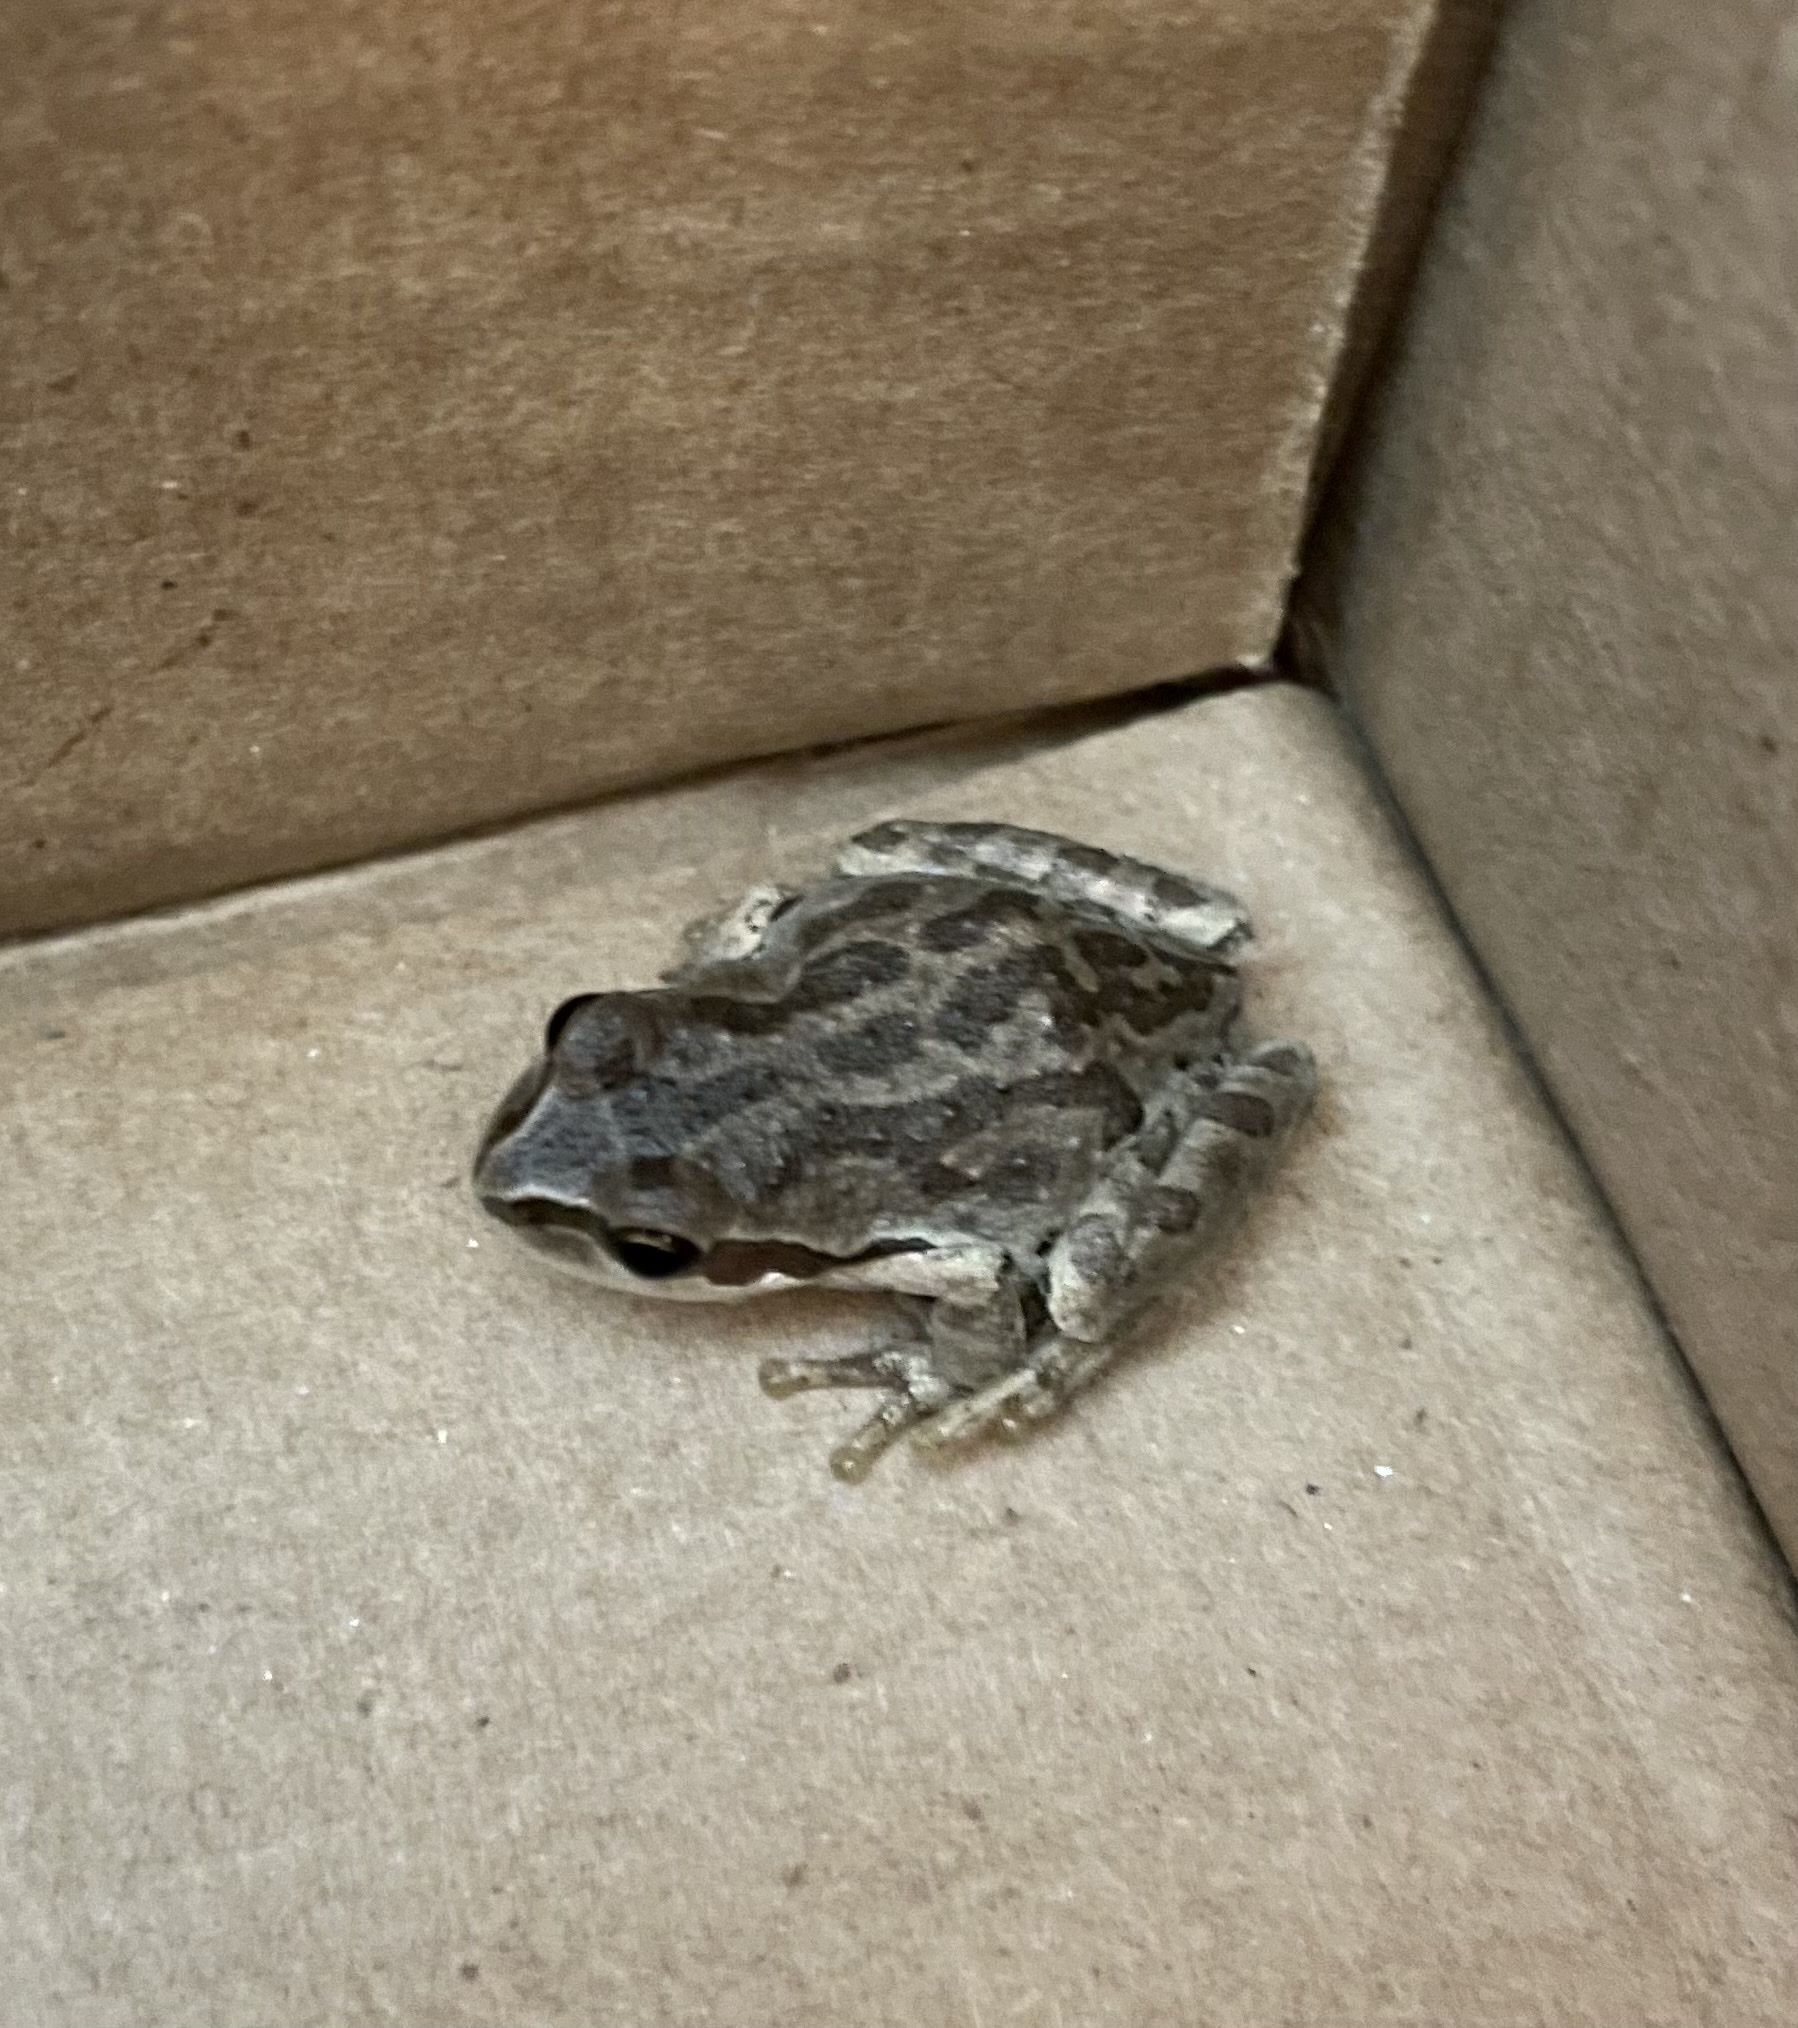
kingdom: Animalia
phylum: Chordata
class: Amphibia
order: Anura
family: Hylidae
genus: Pseudacris
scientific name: Pseudacris regilla
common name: Pacific chorus frog
